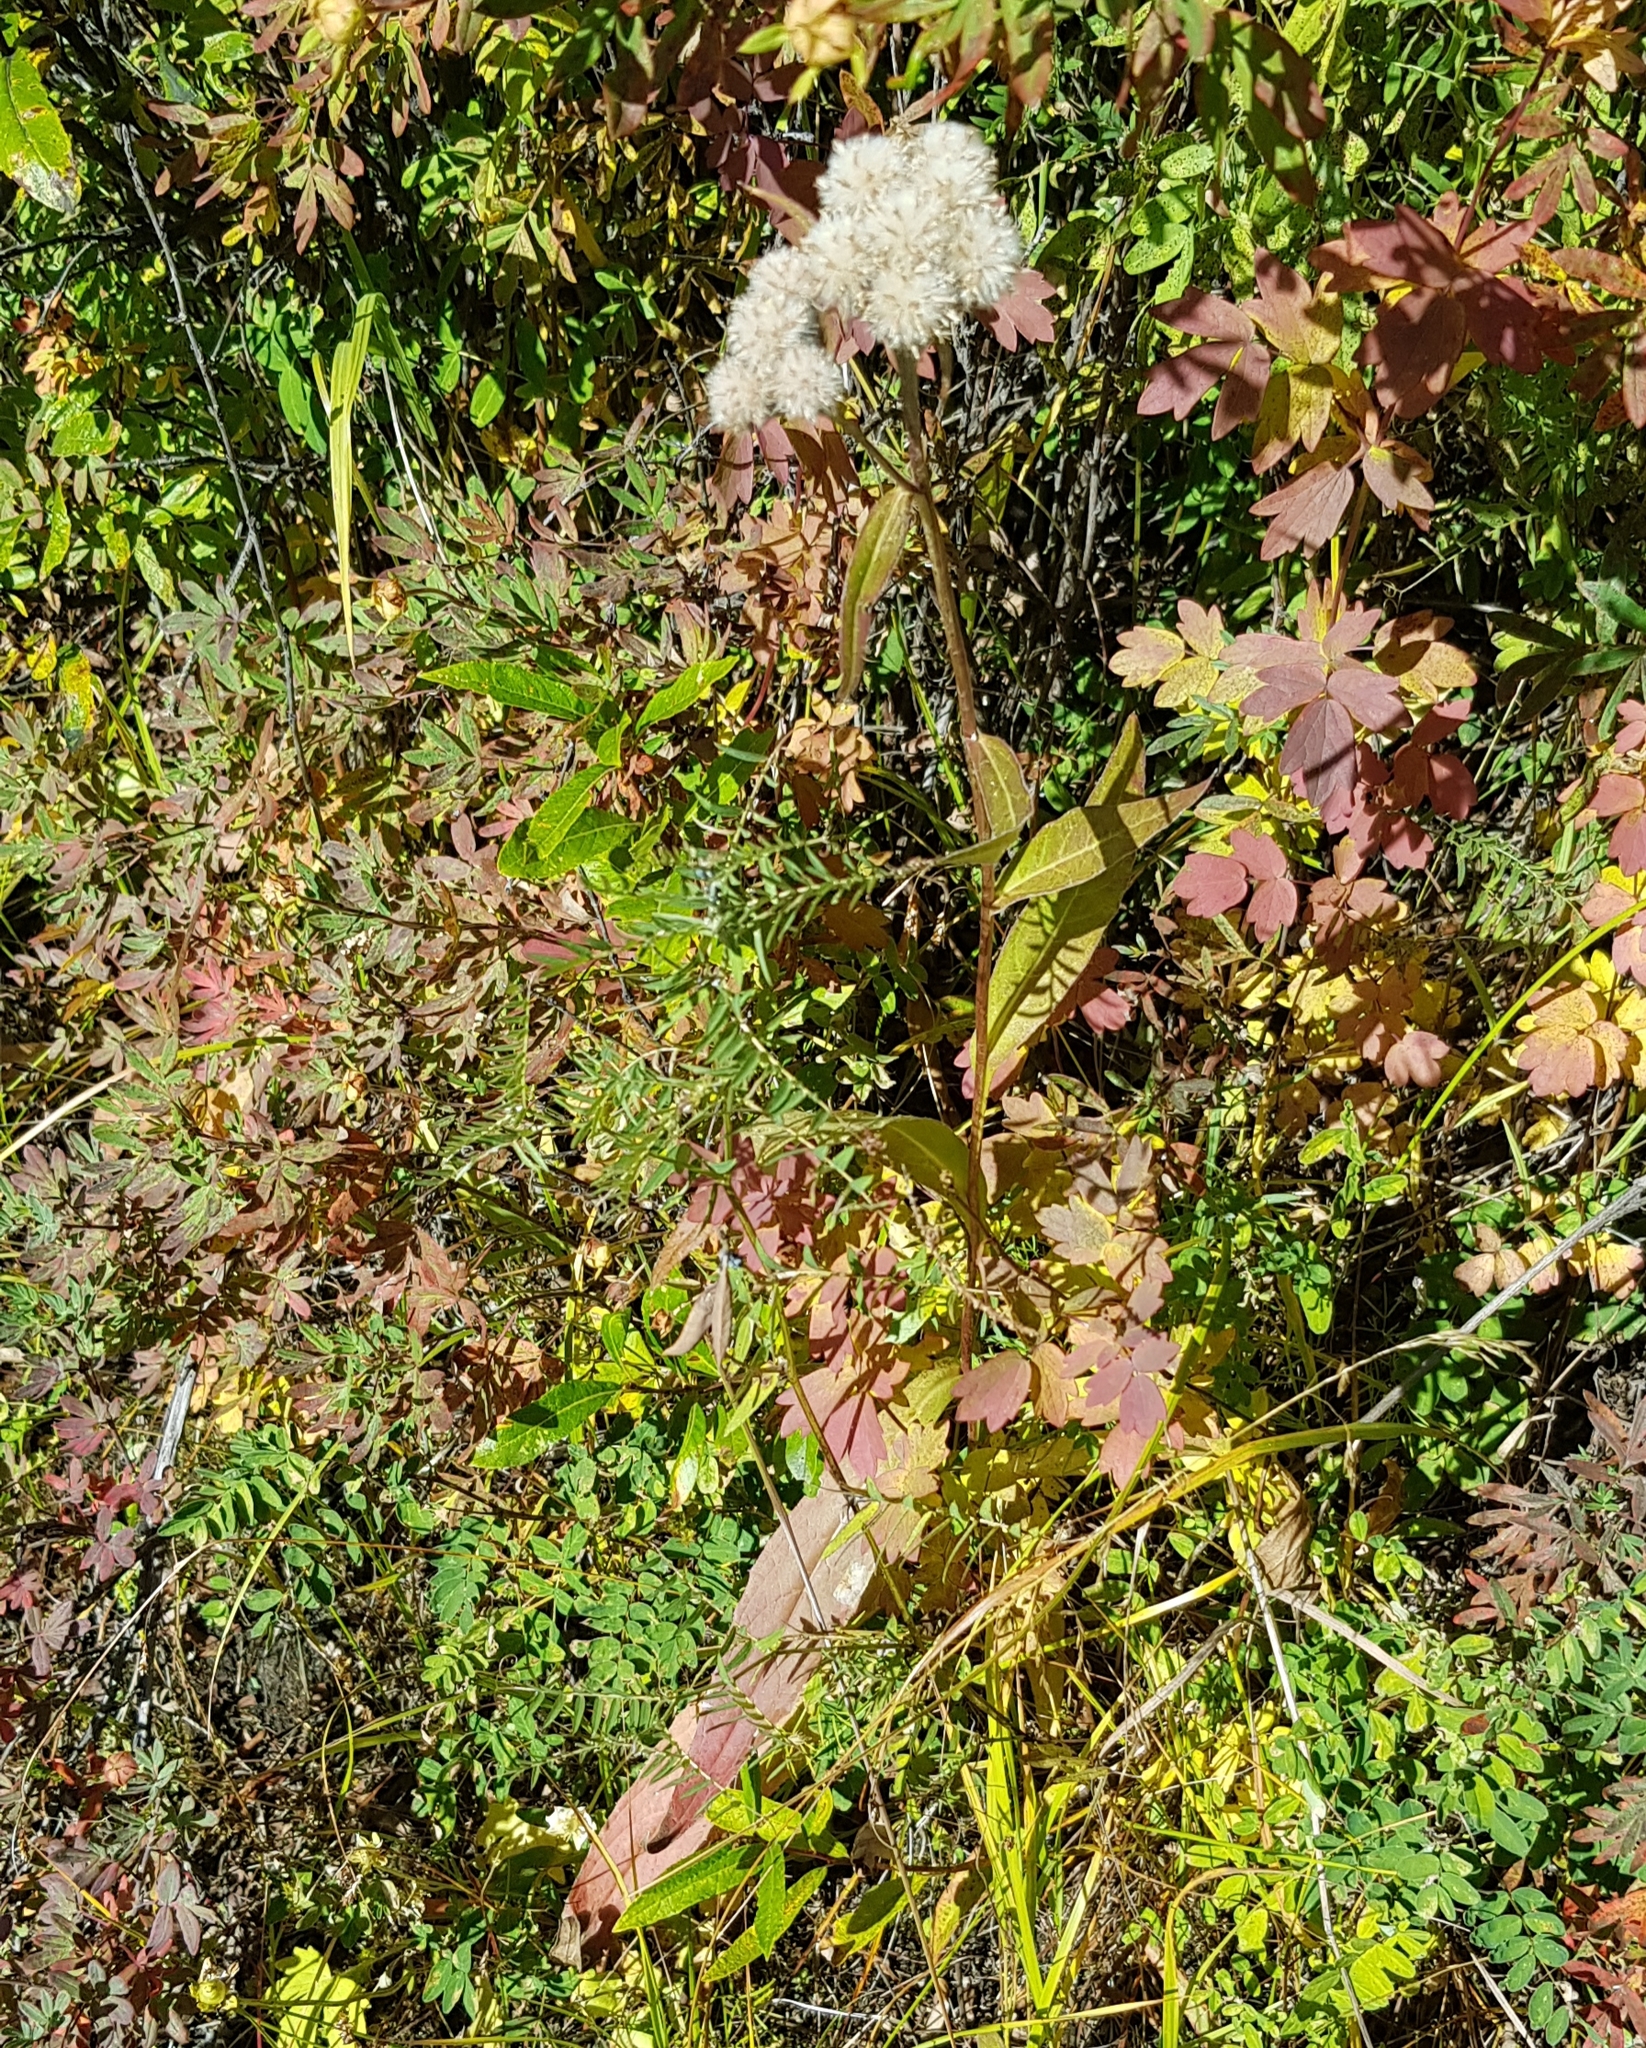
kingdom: Plantae
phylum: Tracheophyta
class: Magnoliopsida
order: Asterales
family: Asteraceae
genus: Crepis
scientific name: Crepis sibirica
